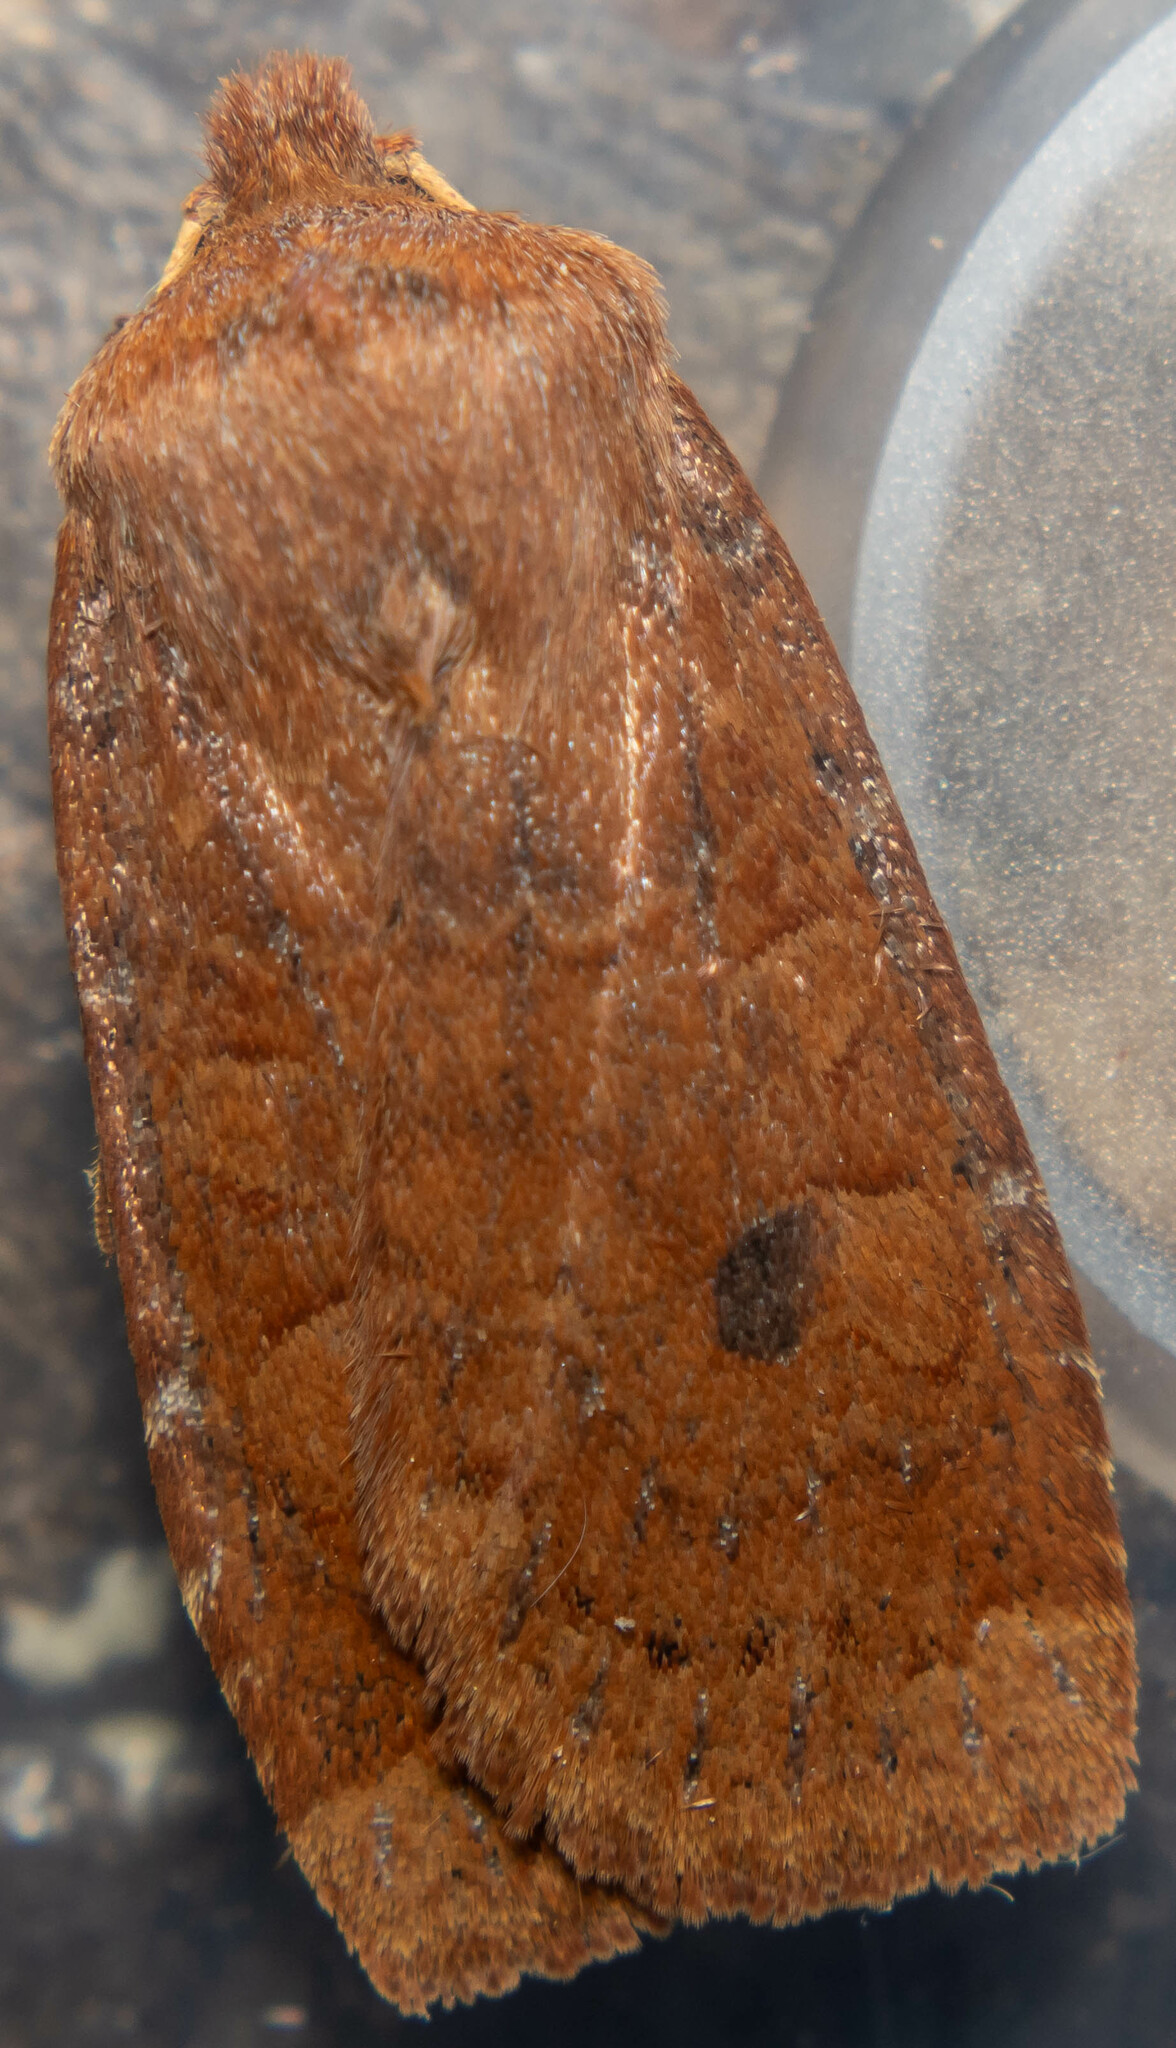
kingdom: Animalia
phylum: Arthropoda
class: Insecta
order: Lepidoptera
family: Noctuidae
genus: Conistra
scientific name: Conistra vaccinii
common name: Chestnut
